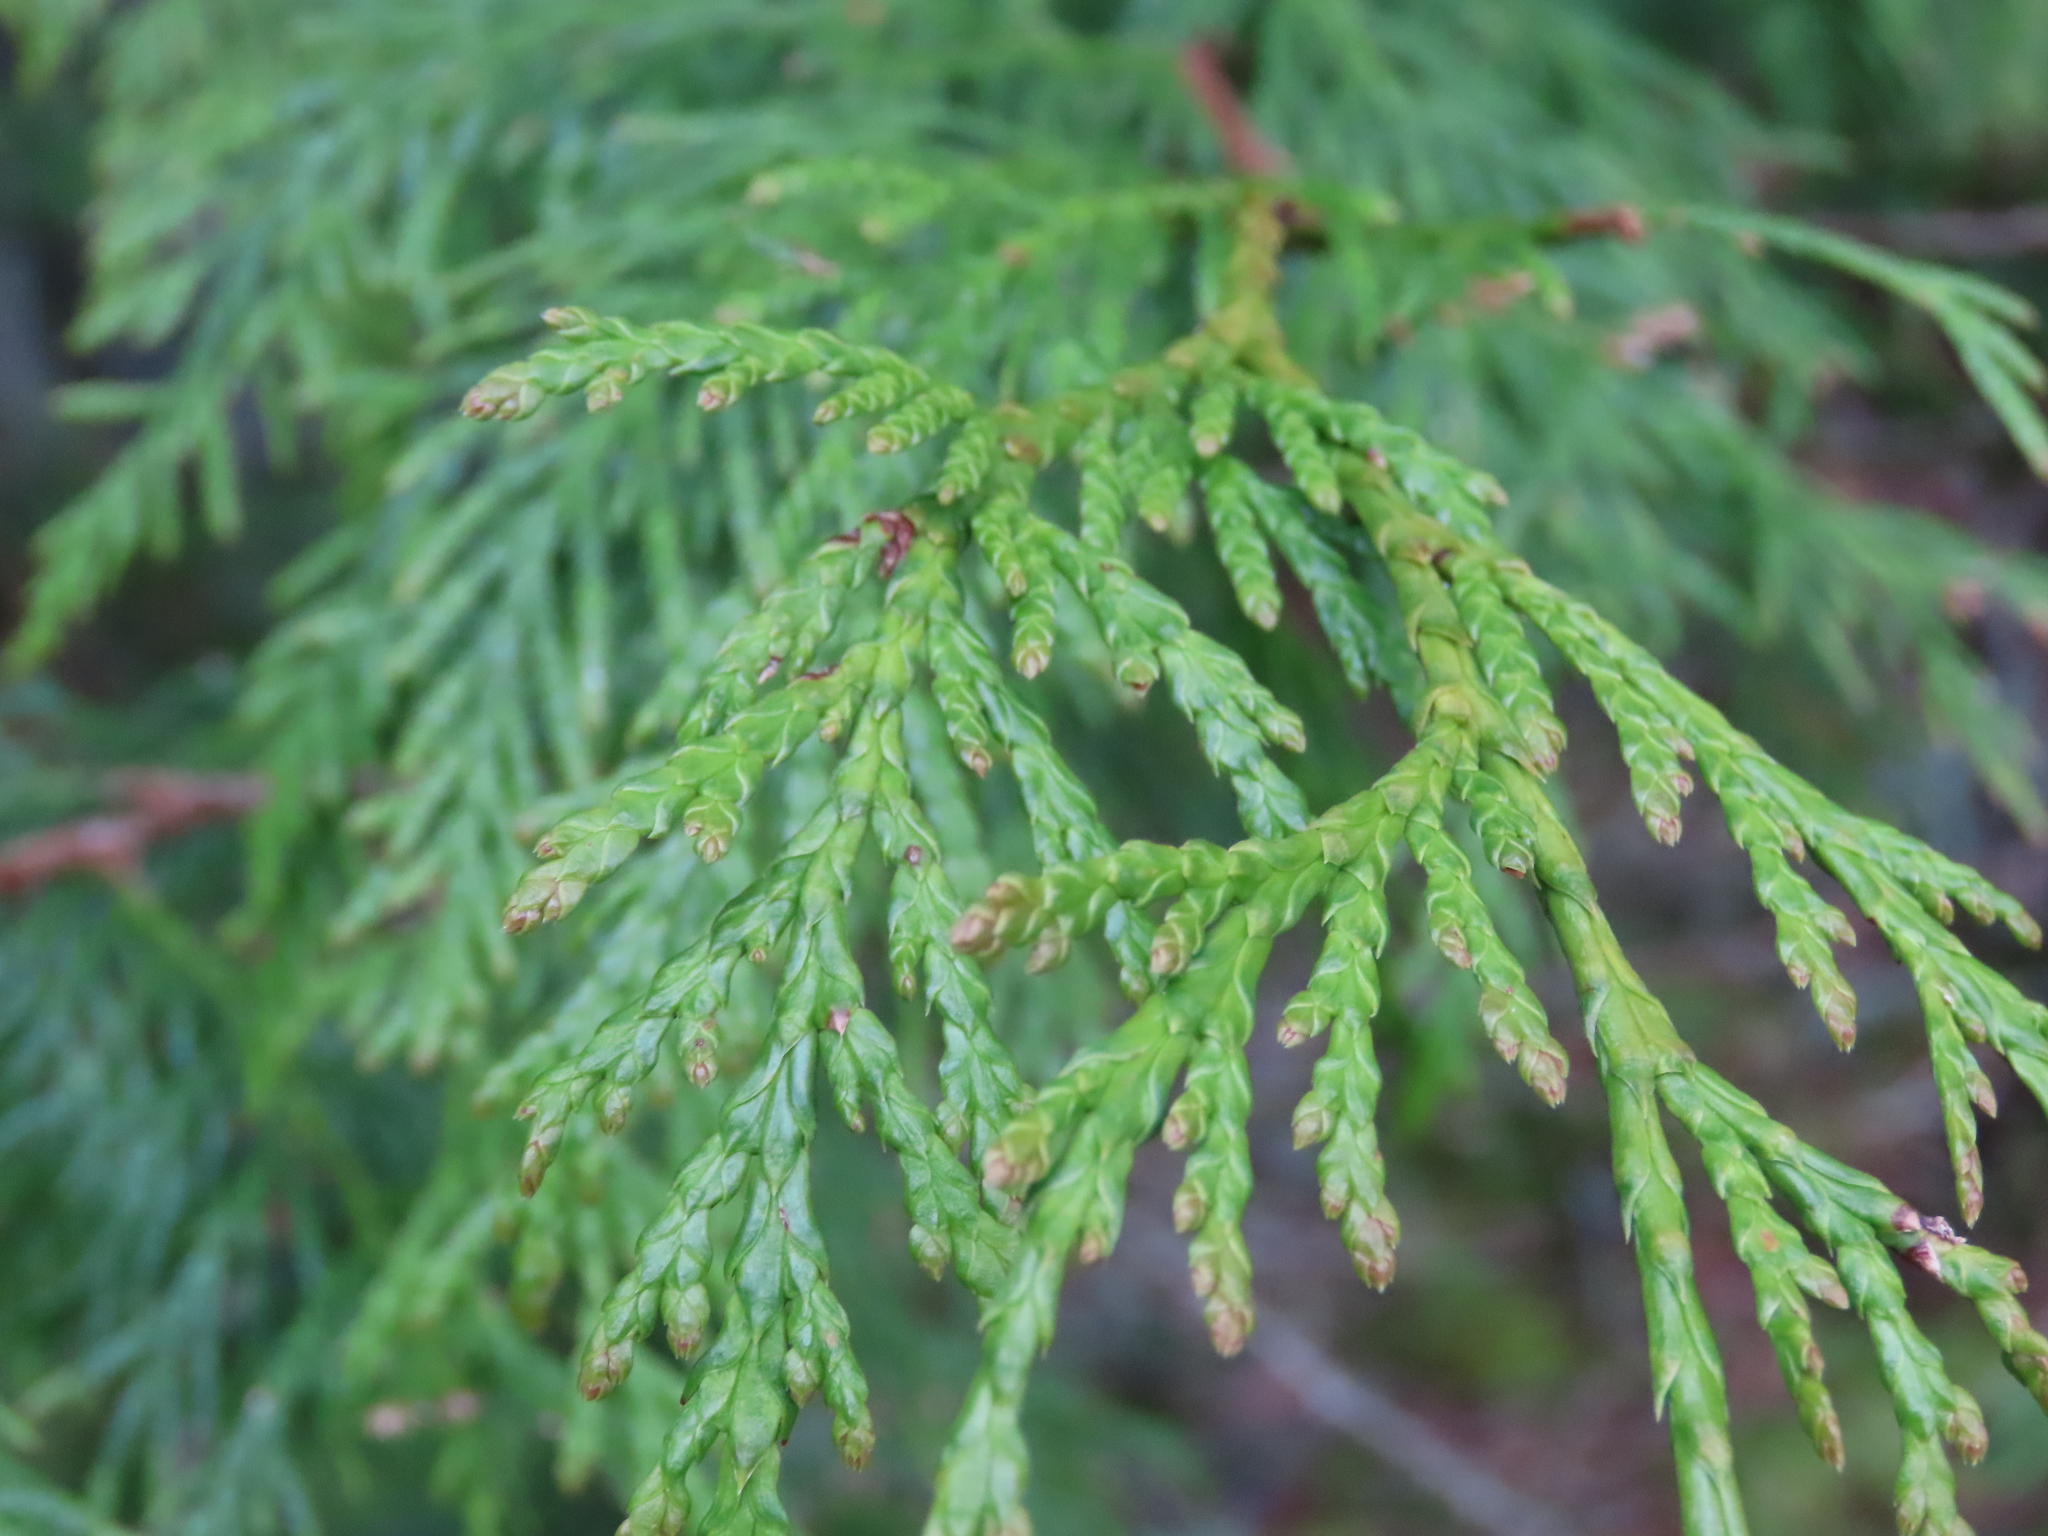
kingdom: Plantae
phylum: Tracheophyta
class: Pinopsida
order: Pinales
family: Cupressaceae
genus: Thuja
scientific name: Thuja plicata
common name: Western red-cedar
